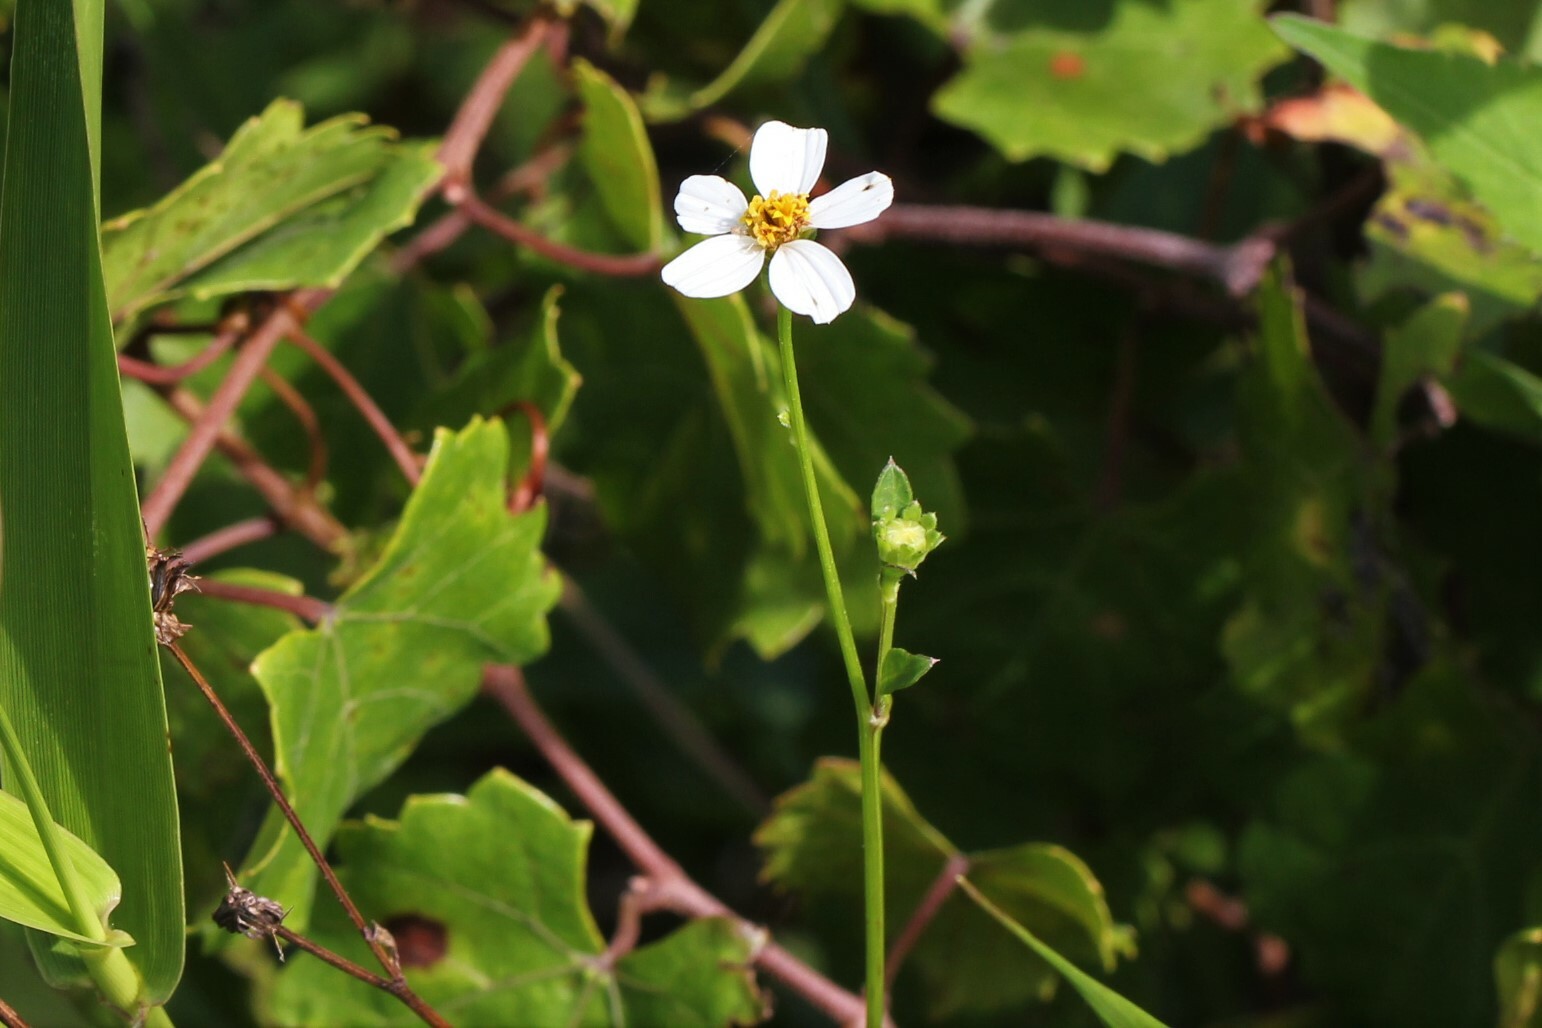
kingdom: Plantae
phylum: Tracheophyta
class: Magnoliopsida
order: Asterales
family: Asteraceae
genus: Bidens
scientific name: Bidens alba
